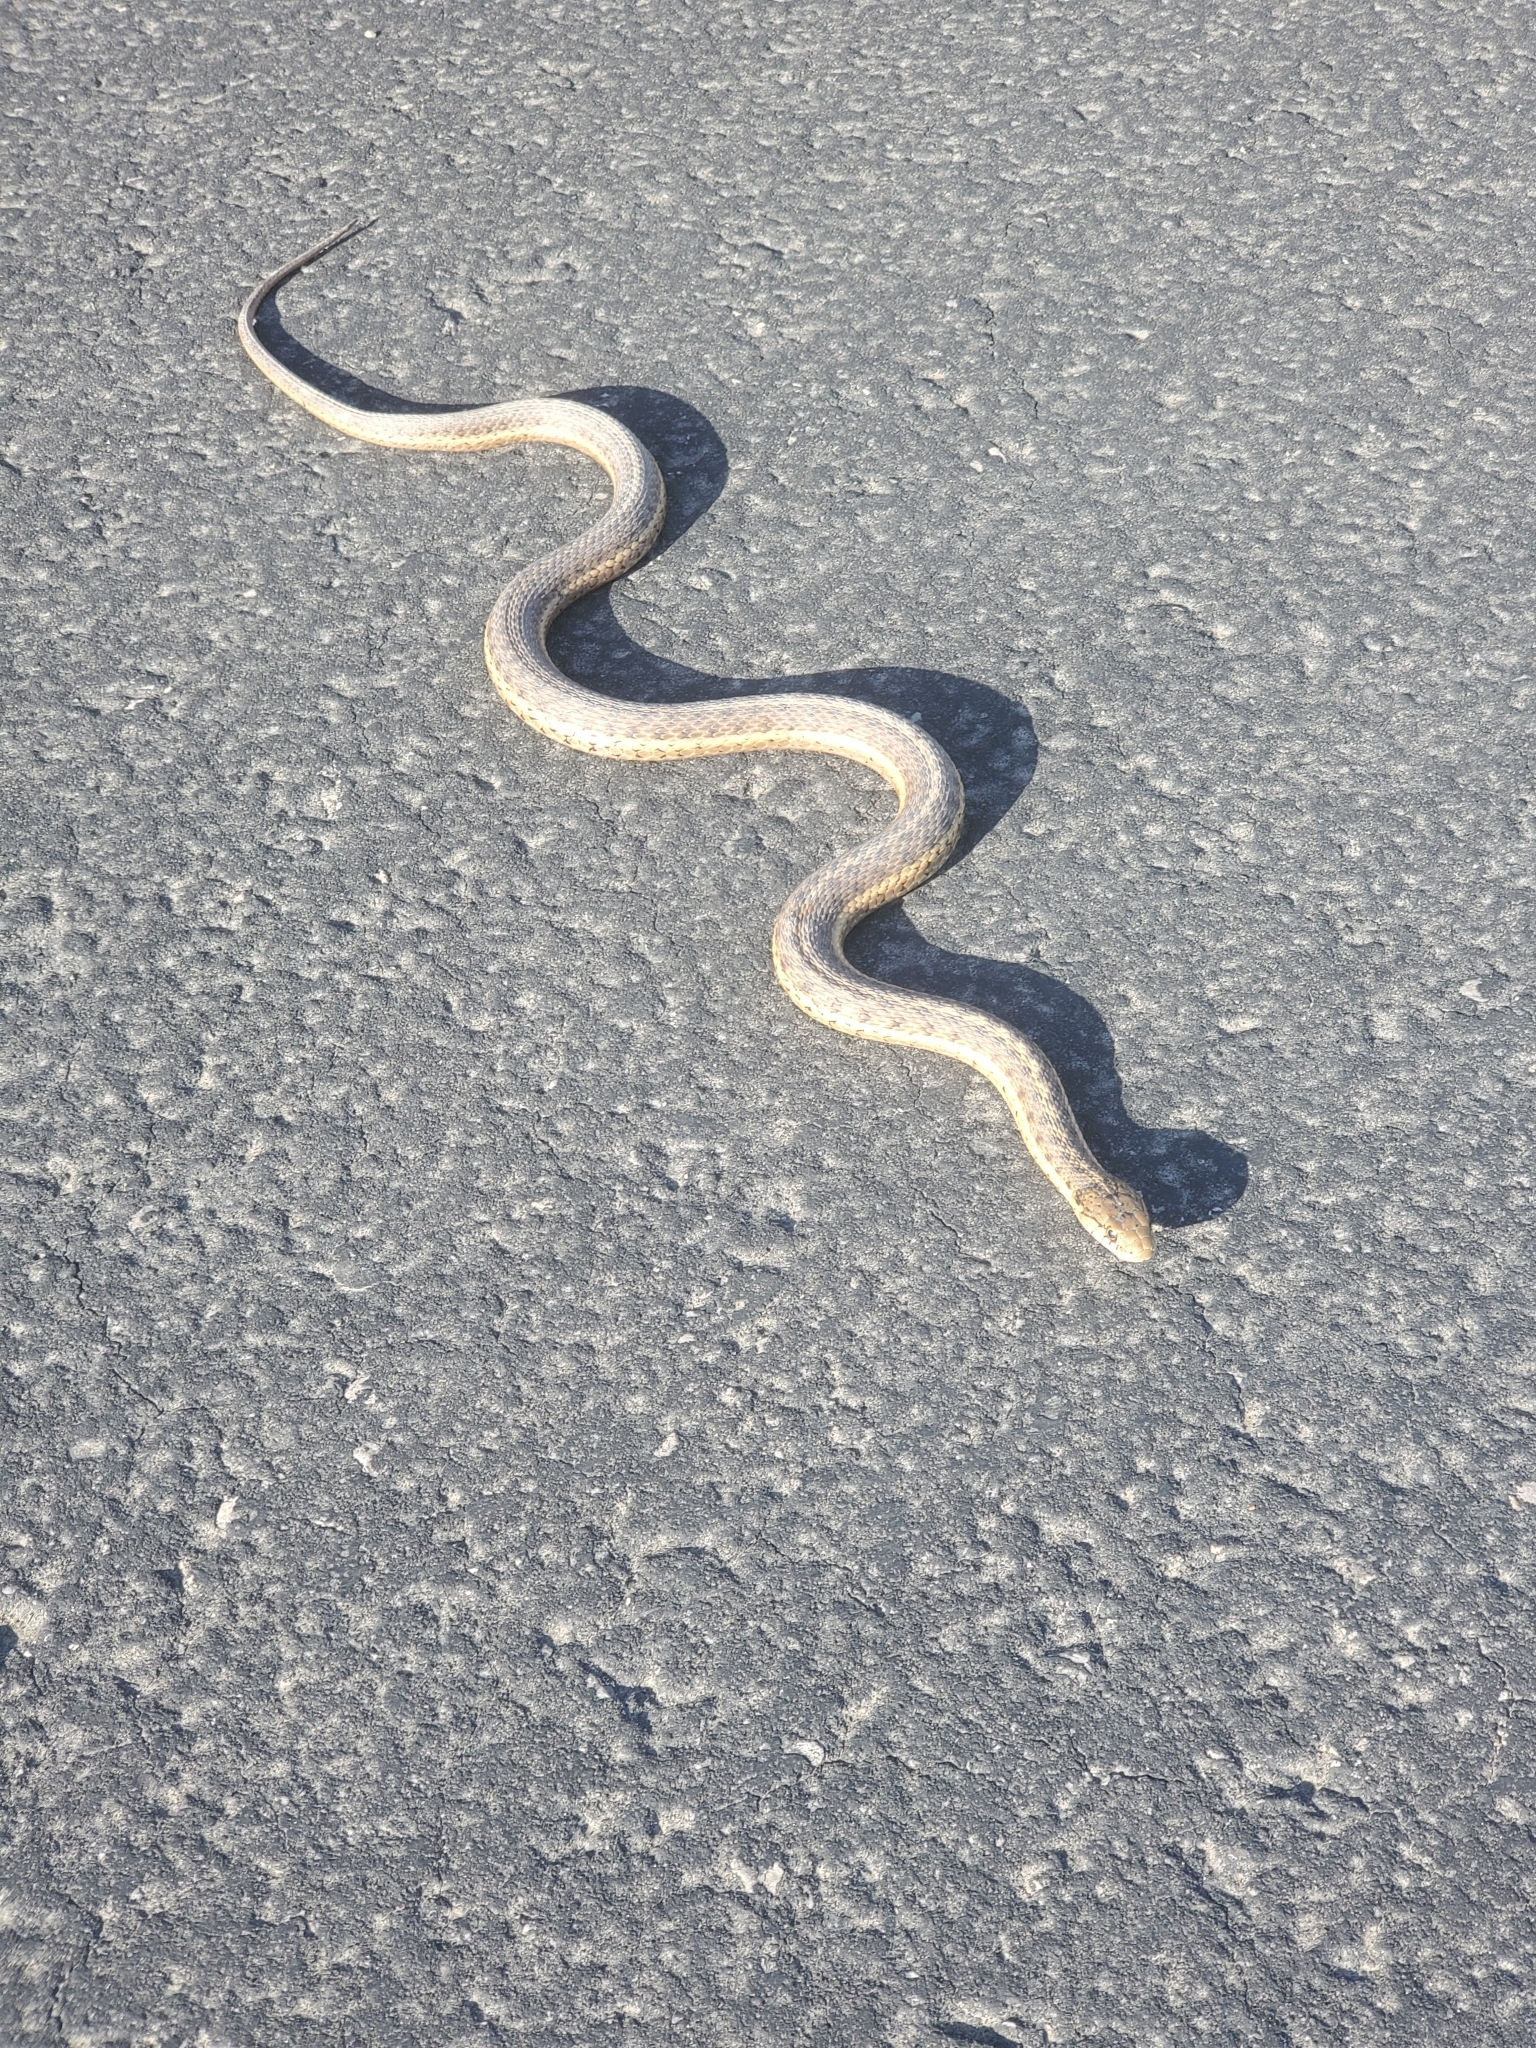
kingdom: Animalia
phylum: Chordata
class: Squamata
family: Colubridae
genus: Thamnophis
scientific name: Thamnophis elegans
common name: Western terrestrial garter snake
